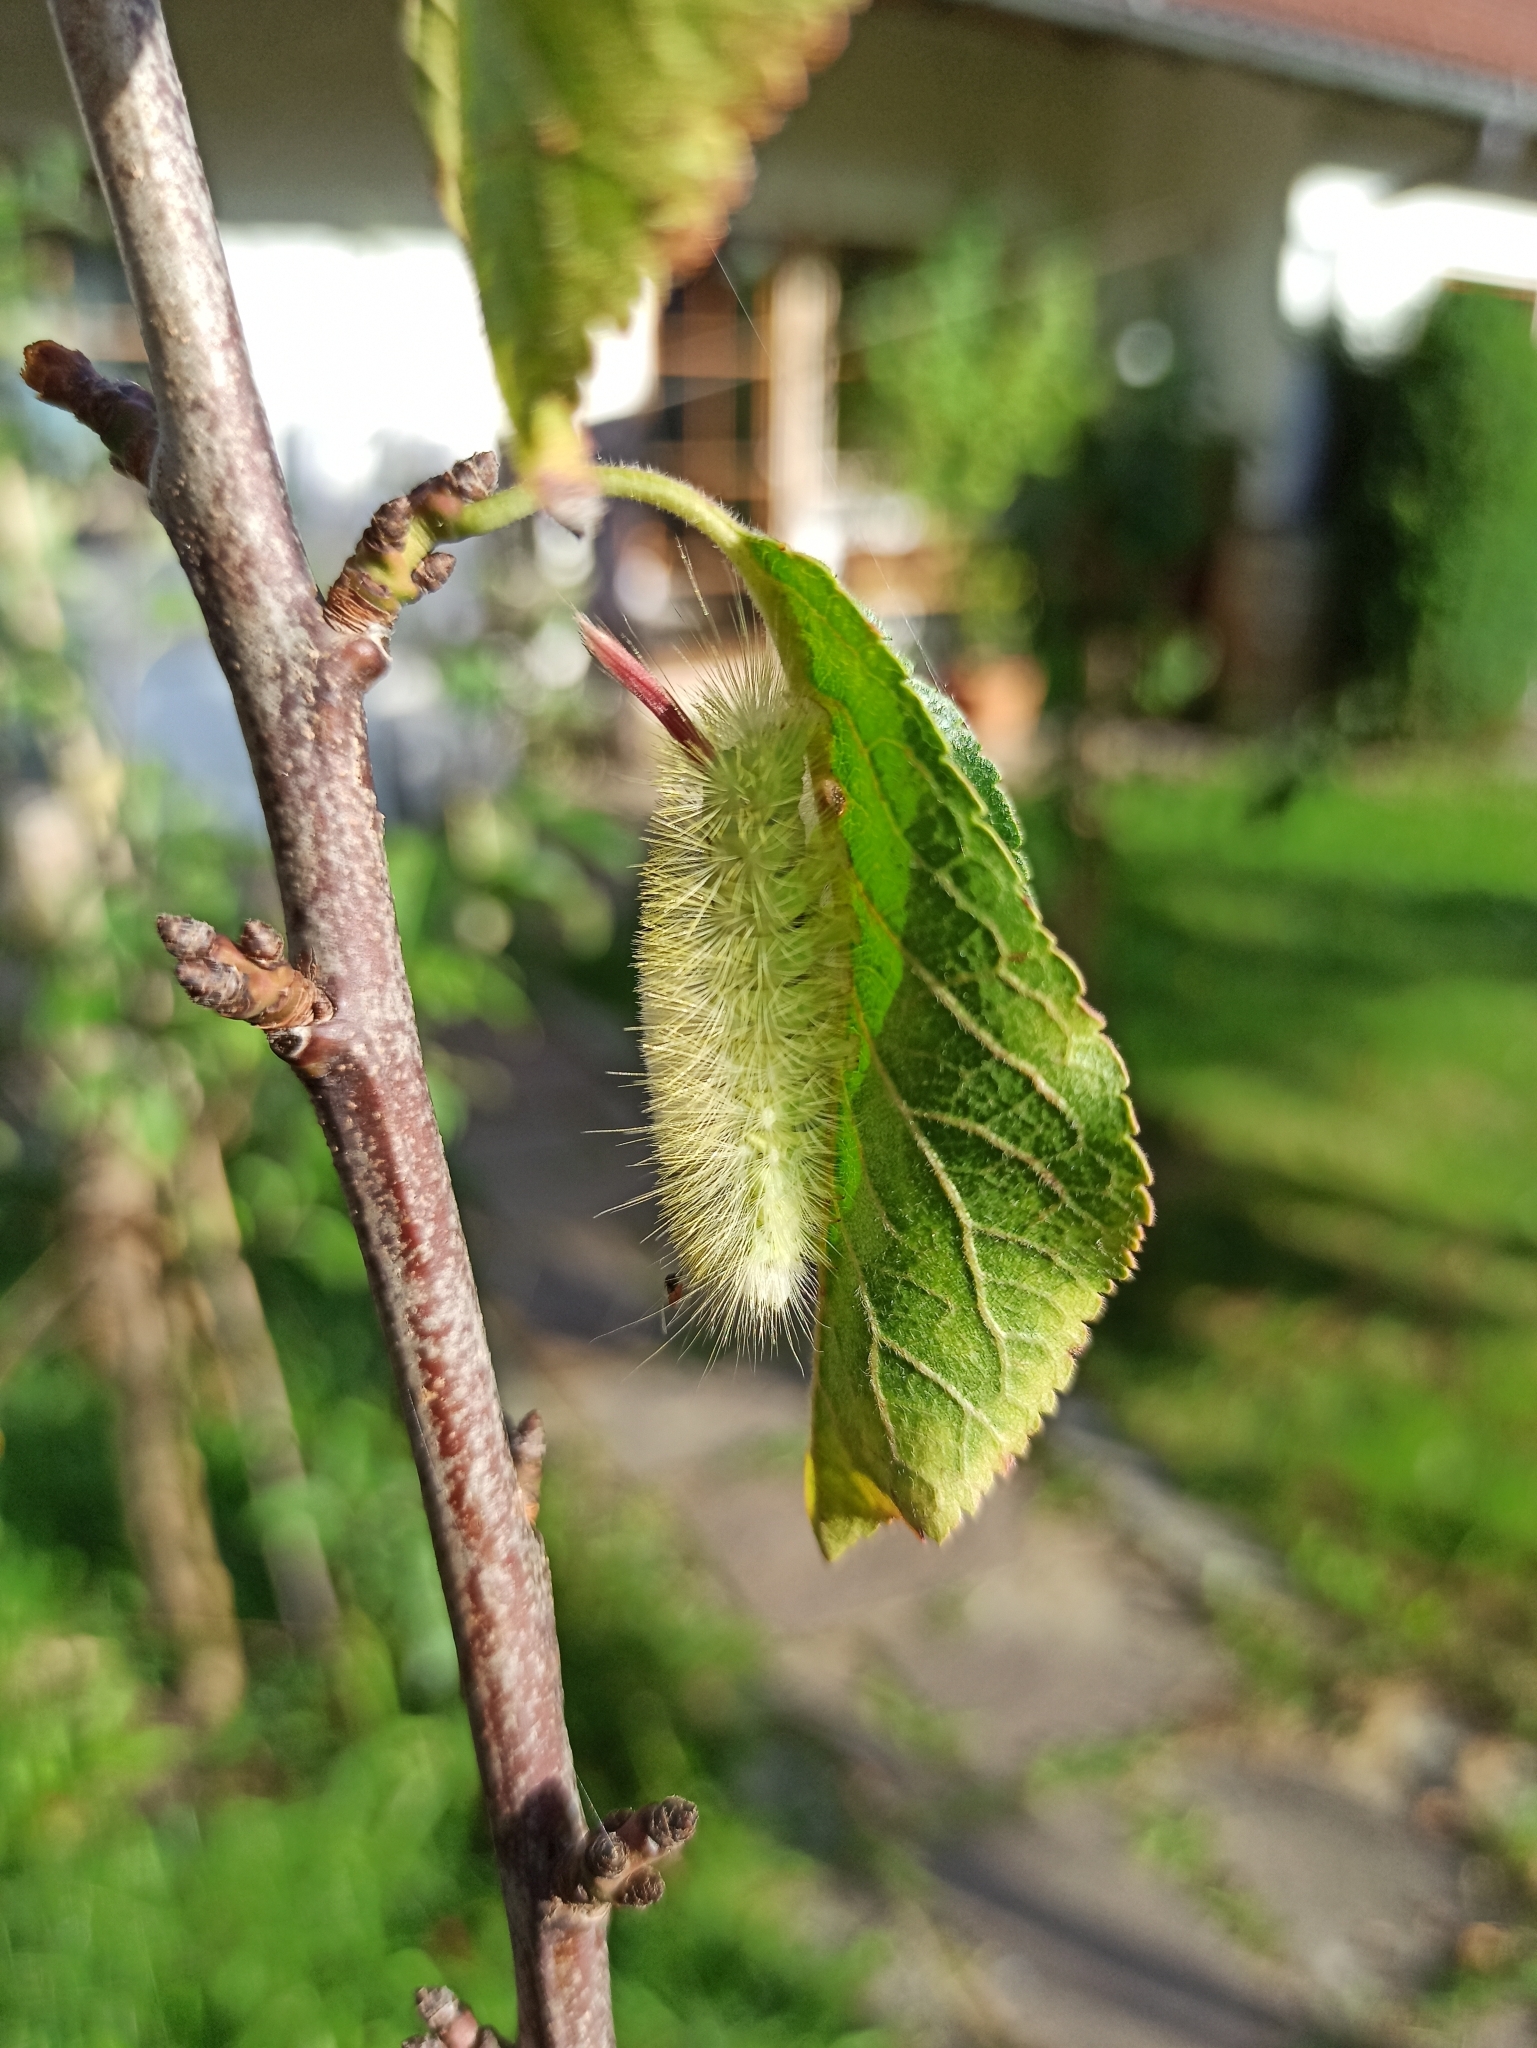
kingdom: Animalia
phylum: Arthropoda
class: Insecta
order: Lepidoptera
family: Erebidae
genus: Calliteara
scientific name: Calliteara pudibunda
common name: Pale tussock
